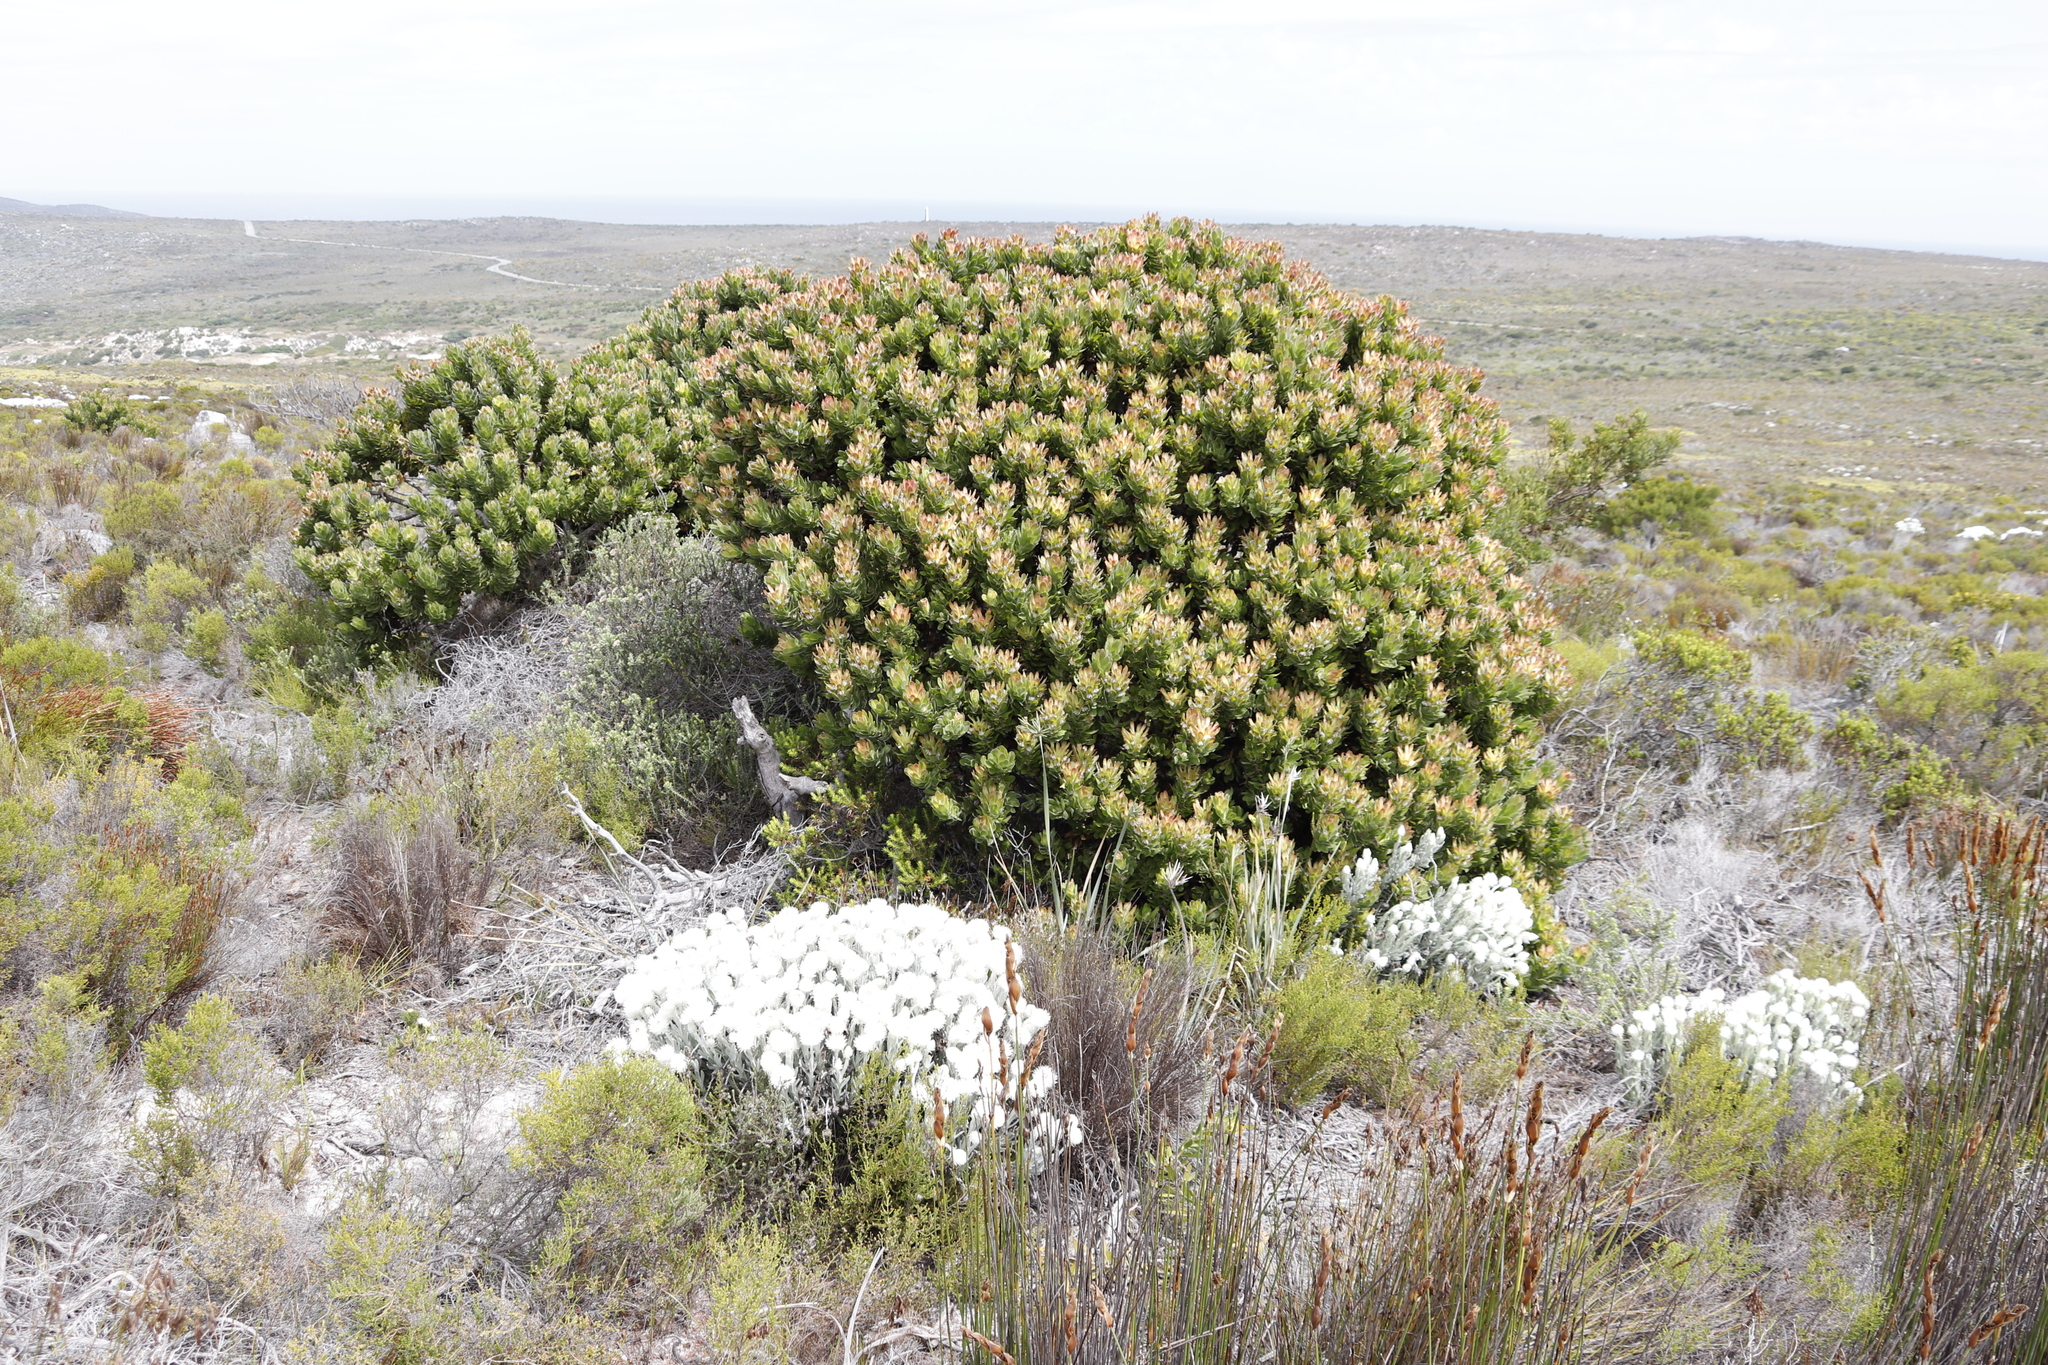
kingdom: Plantae
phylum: Tracheophyta
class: Magnoliopsida
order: Proteales
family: Proteaceae
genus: Mimetes
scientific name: Mimetes fimbriifolius
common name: Fringed bottlebrush
